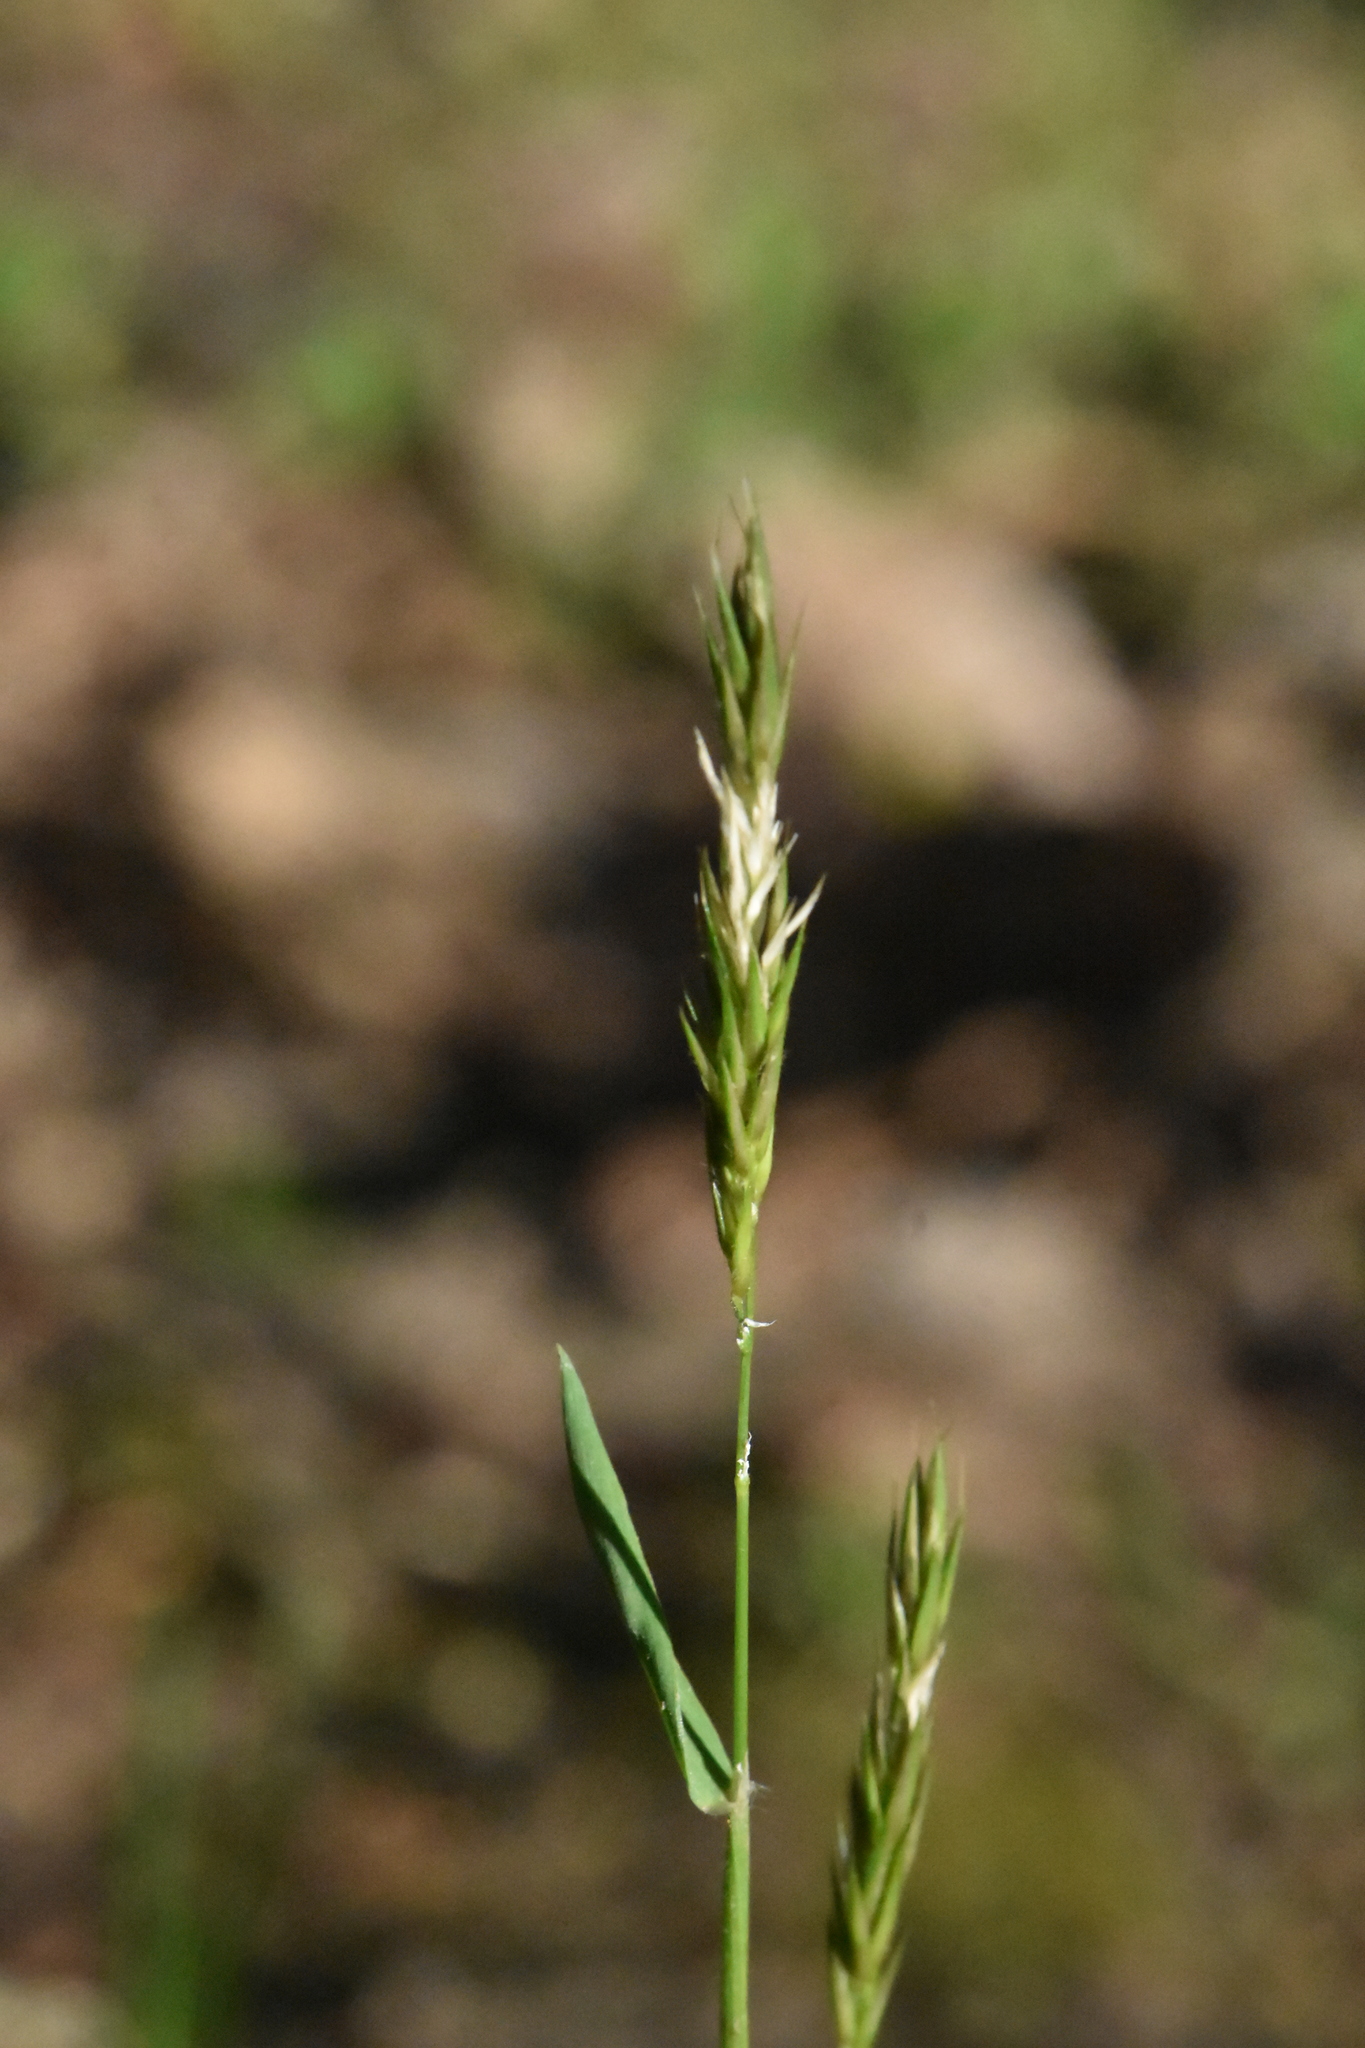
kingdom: Plantae
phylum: Tracheophyta
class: Liliopsida
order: Poales
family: Poaceae
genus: Anthoxanthum
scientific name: Anthoxanthum odoratum
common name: Sweet vernalgrass
